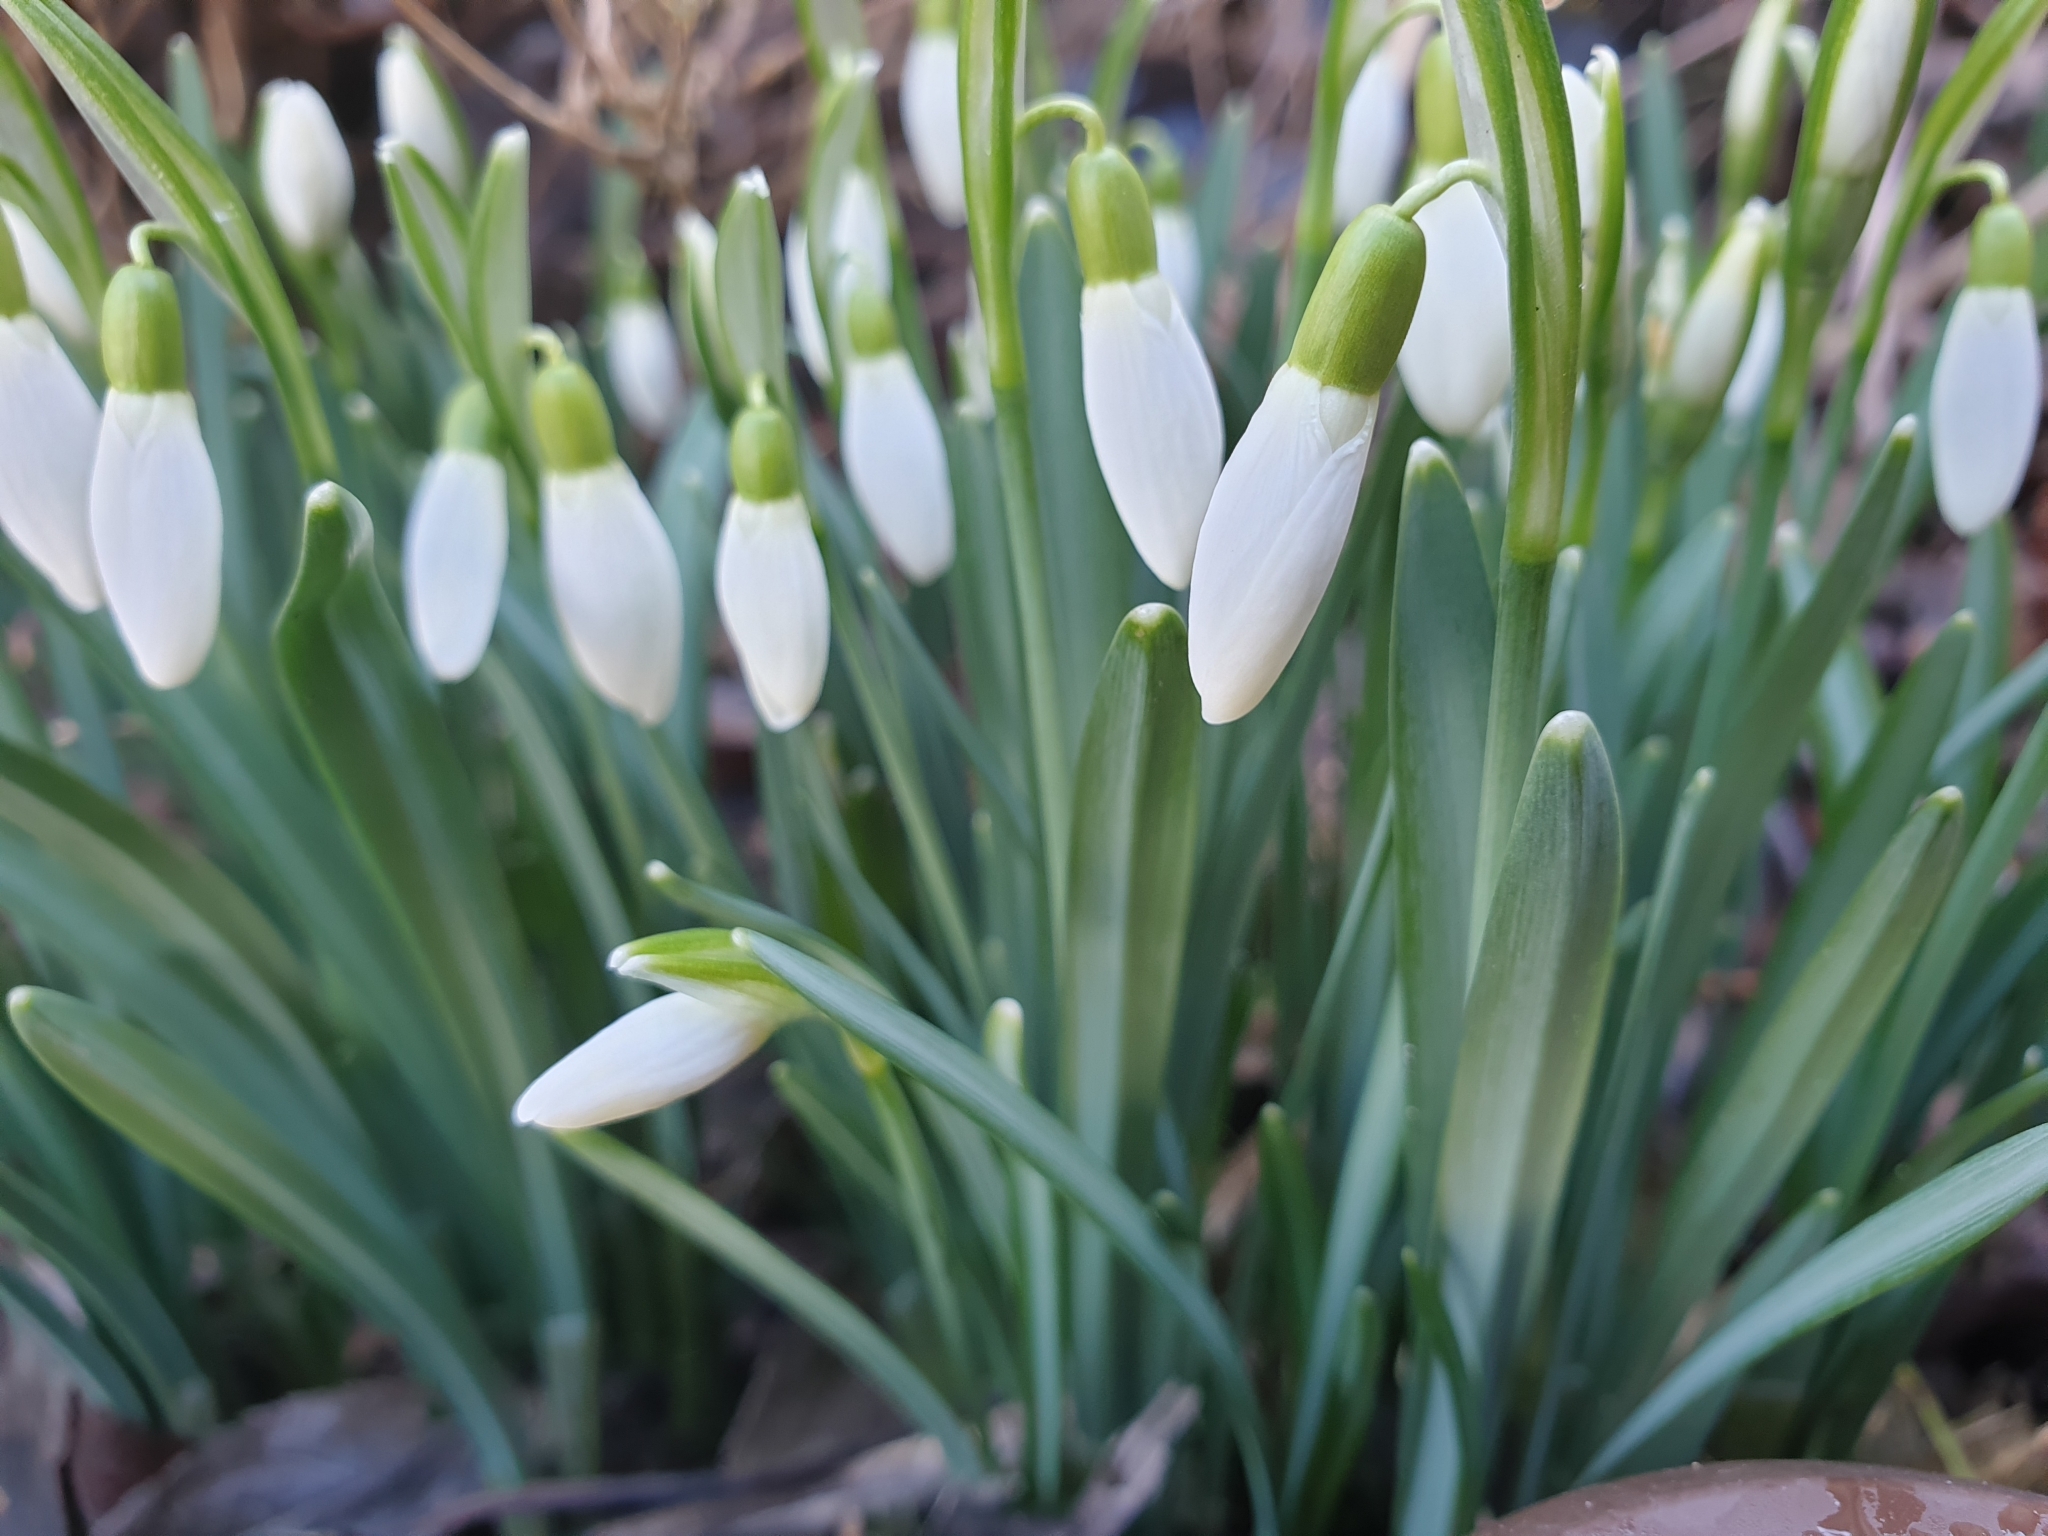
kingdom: Plantae
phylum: Tracheophyta
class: Liliopsida
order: Asparagales
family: Amaryllidaceae
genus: Galanthus
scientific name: Galanthus nivalis
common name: Snowdrop
